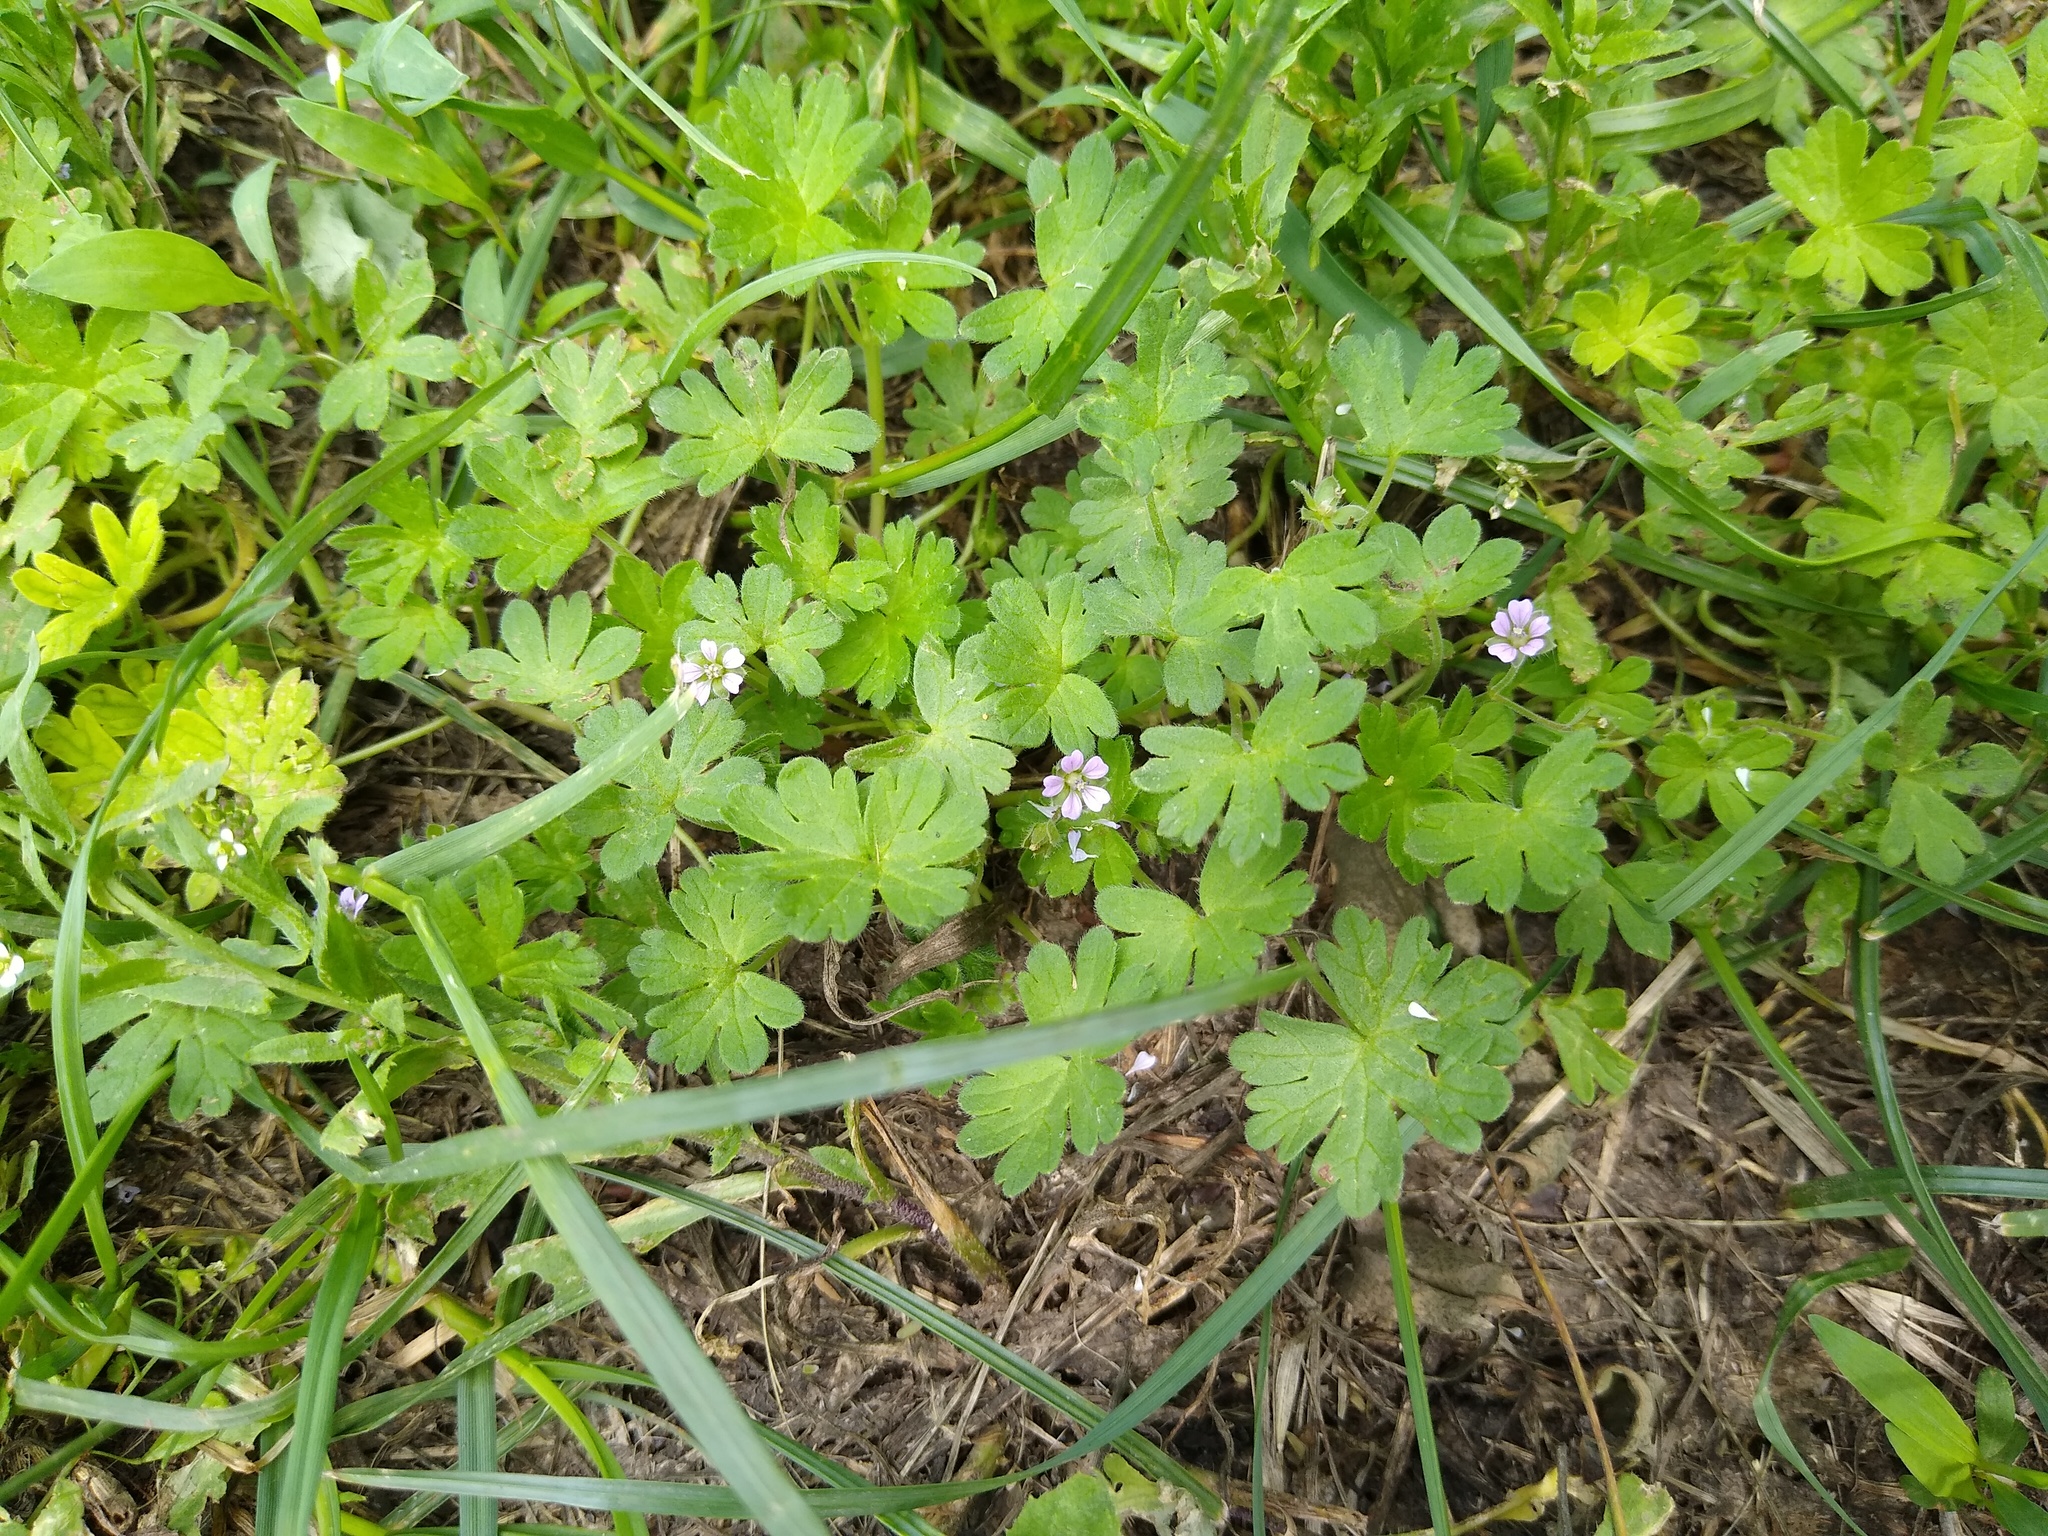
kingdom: Plantae
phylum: Tracheophyta
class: Magnoliopsida
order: Geraniales
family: Geraniaceae
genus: Geranium
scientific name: Geranium pusillum
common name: Small geranium
